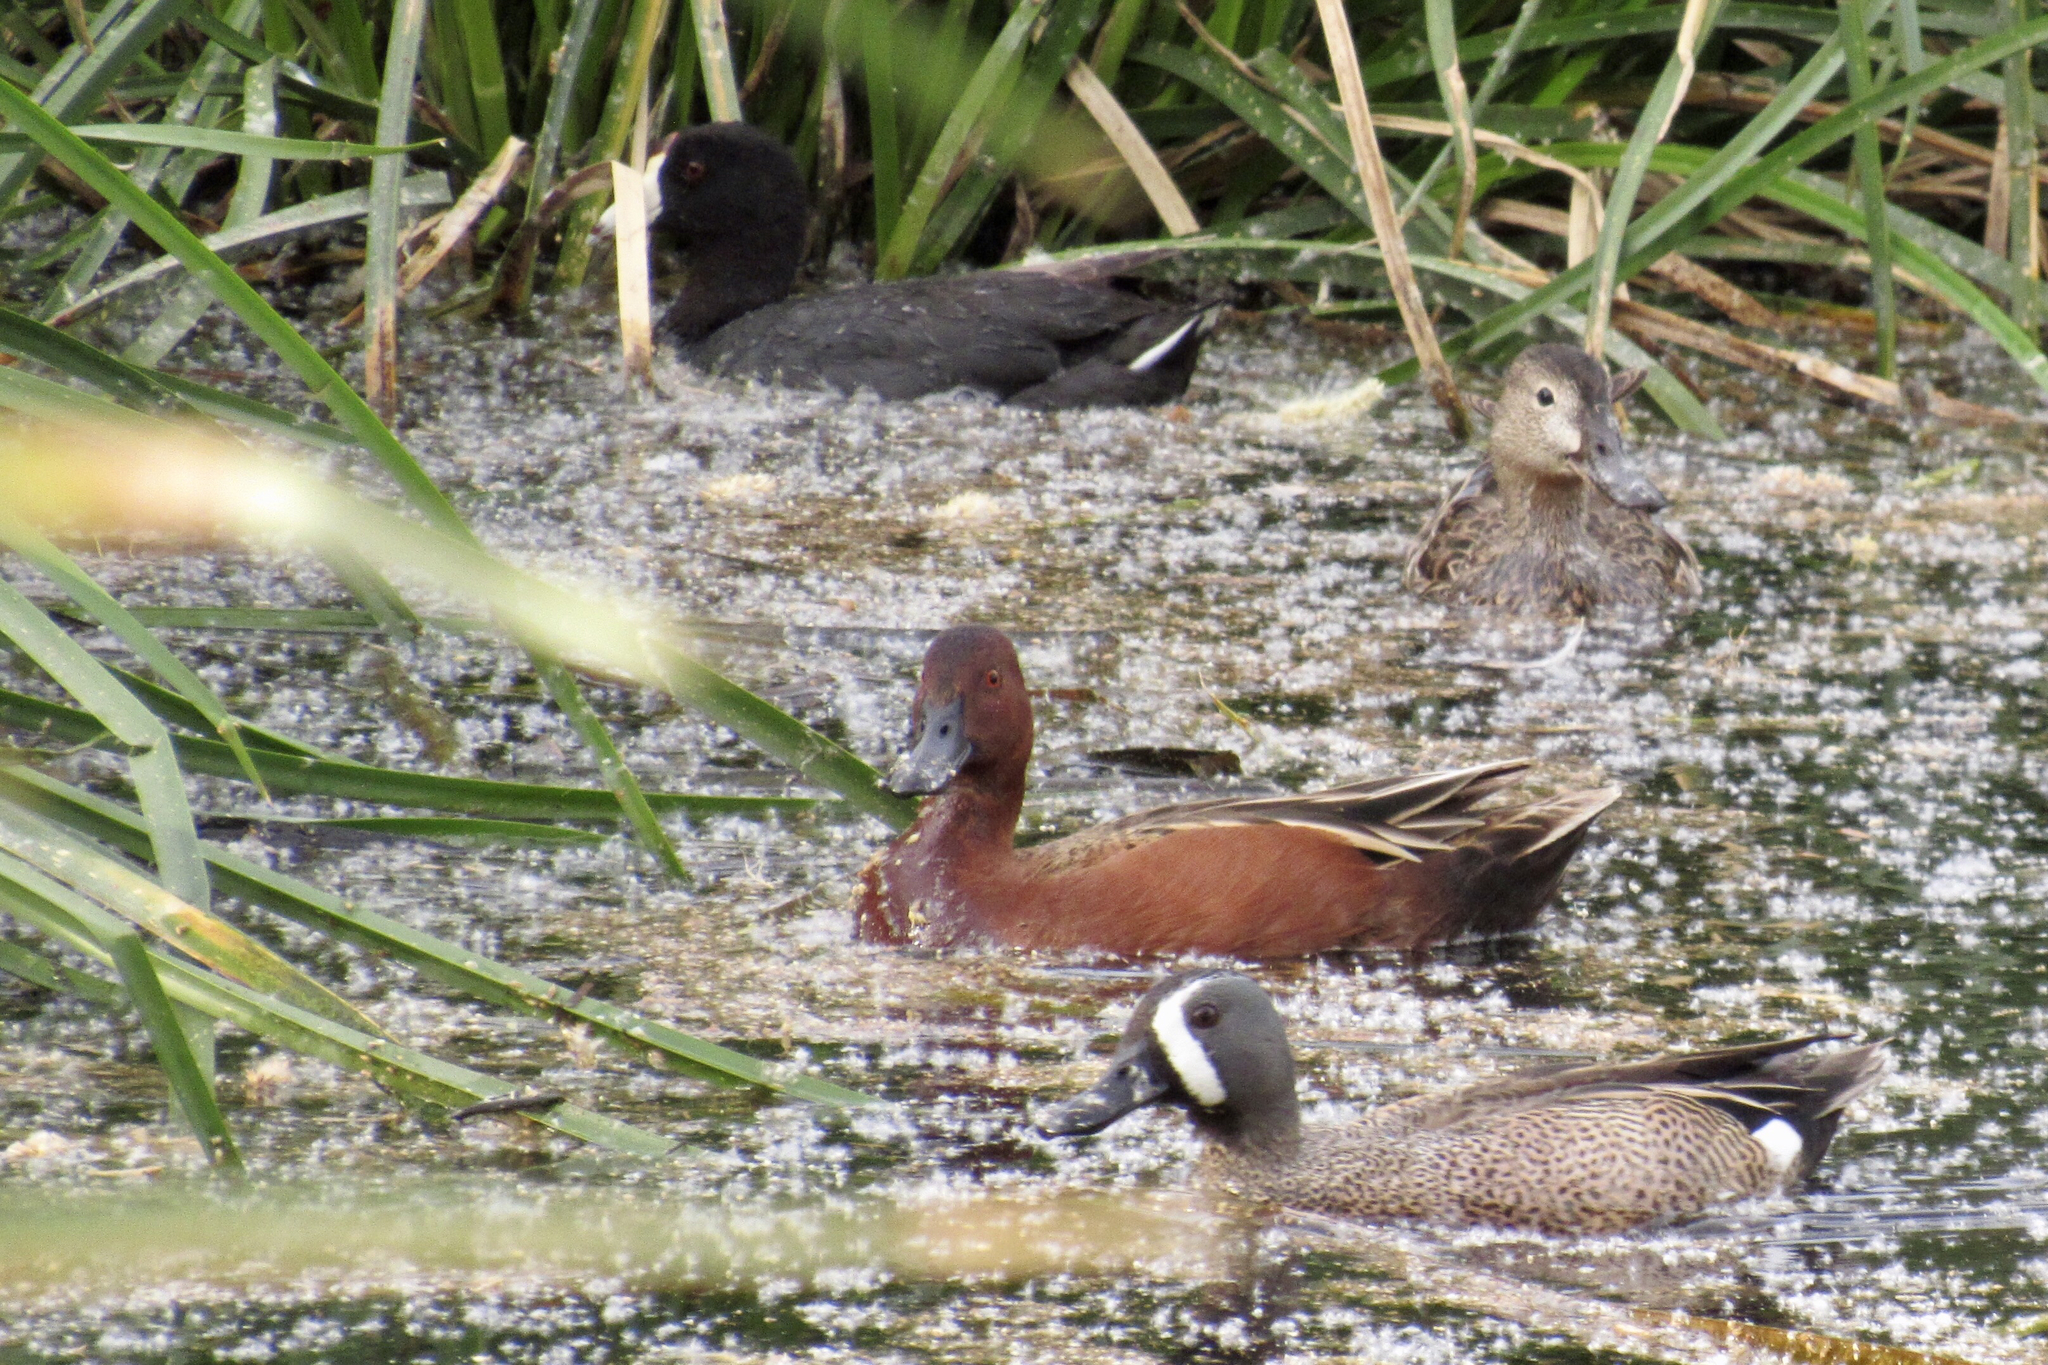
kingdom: Animalia
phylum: Chordata
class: Aves
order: Gruiformes
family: Rallidae
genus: Fulica
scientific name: Fulica americana
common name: American coot
